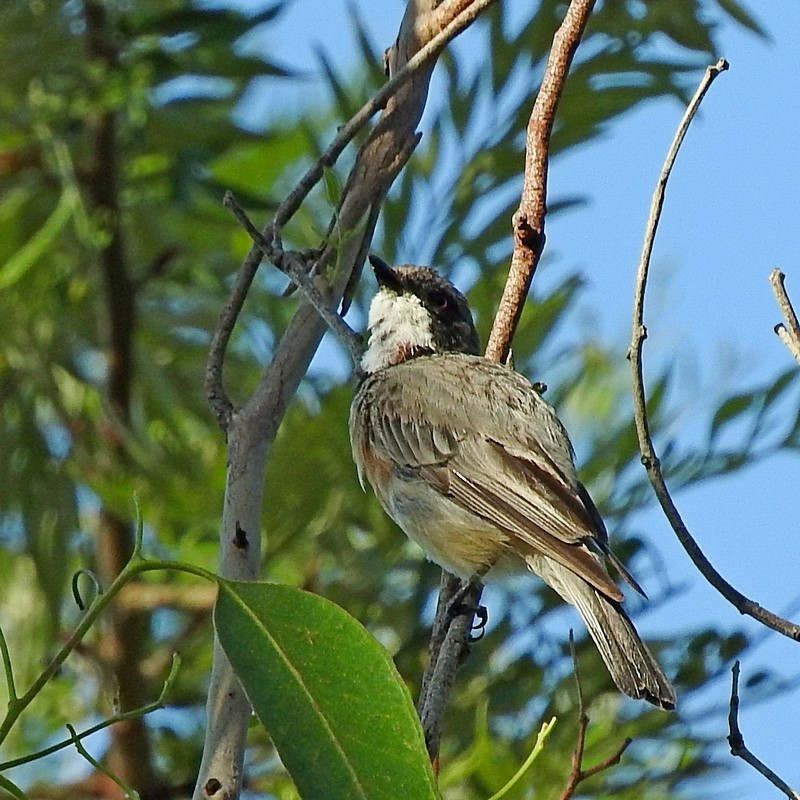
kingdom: Animalia
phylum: Chordata
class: Aves
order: Passeriformes
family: Pachycephalidae
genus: Pachycephala
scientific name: Pachycephala rufiventris
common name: Rufous whistler
